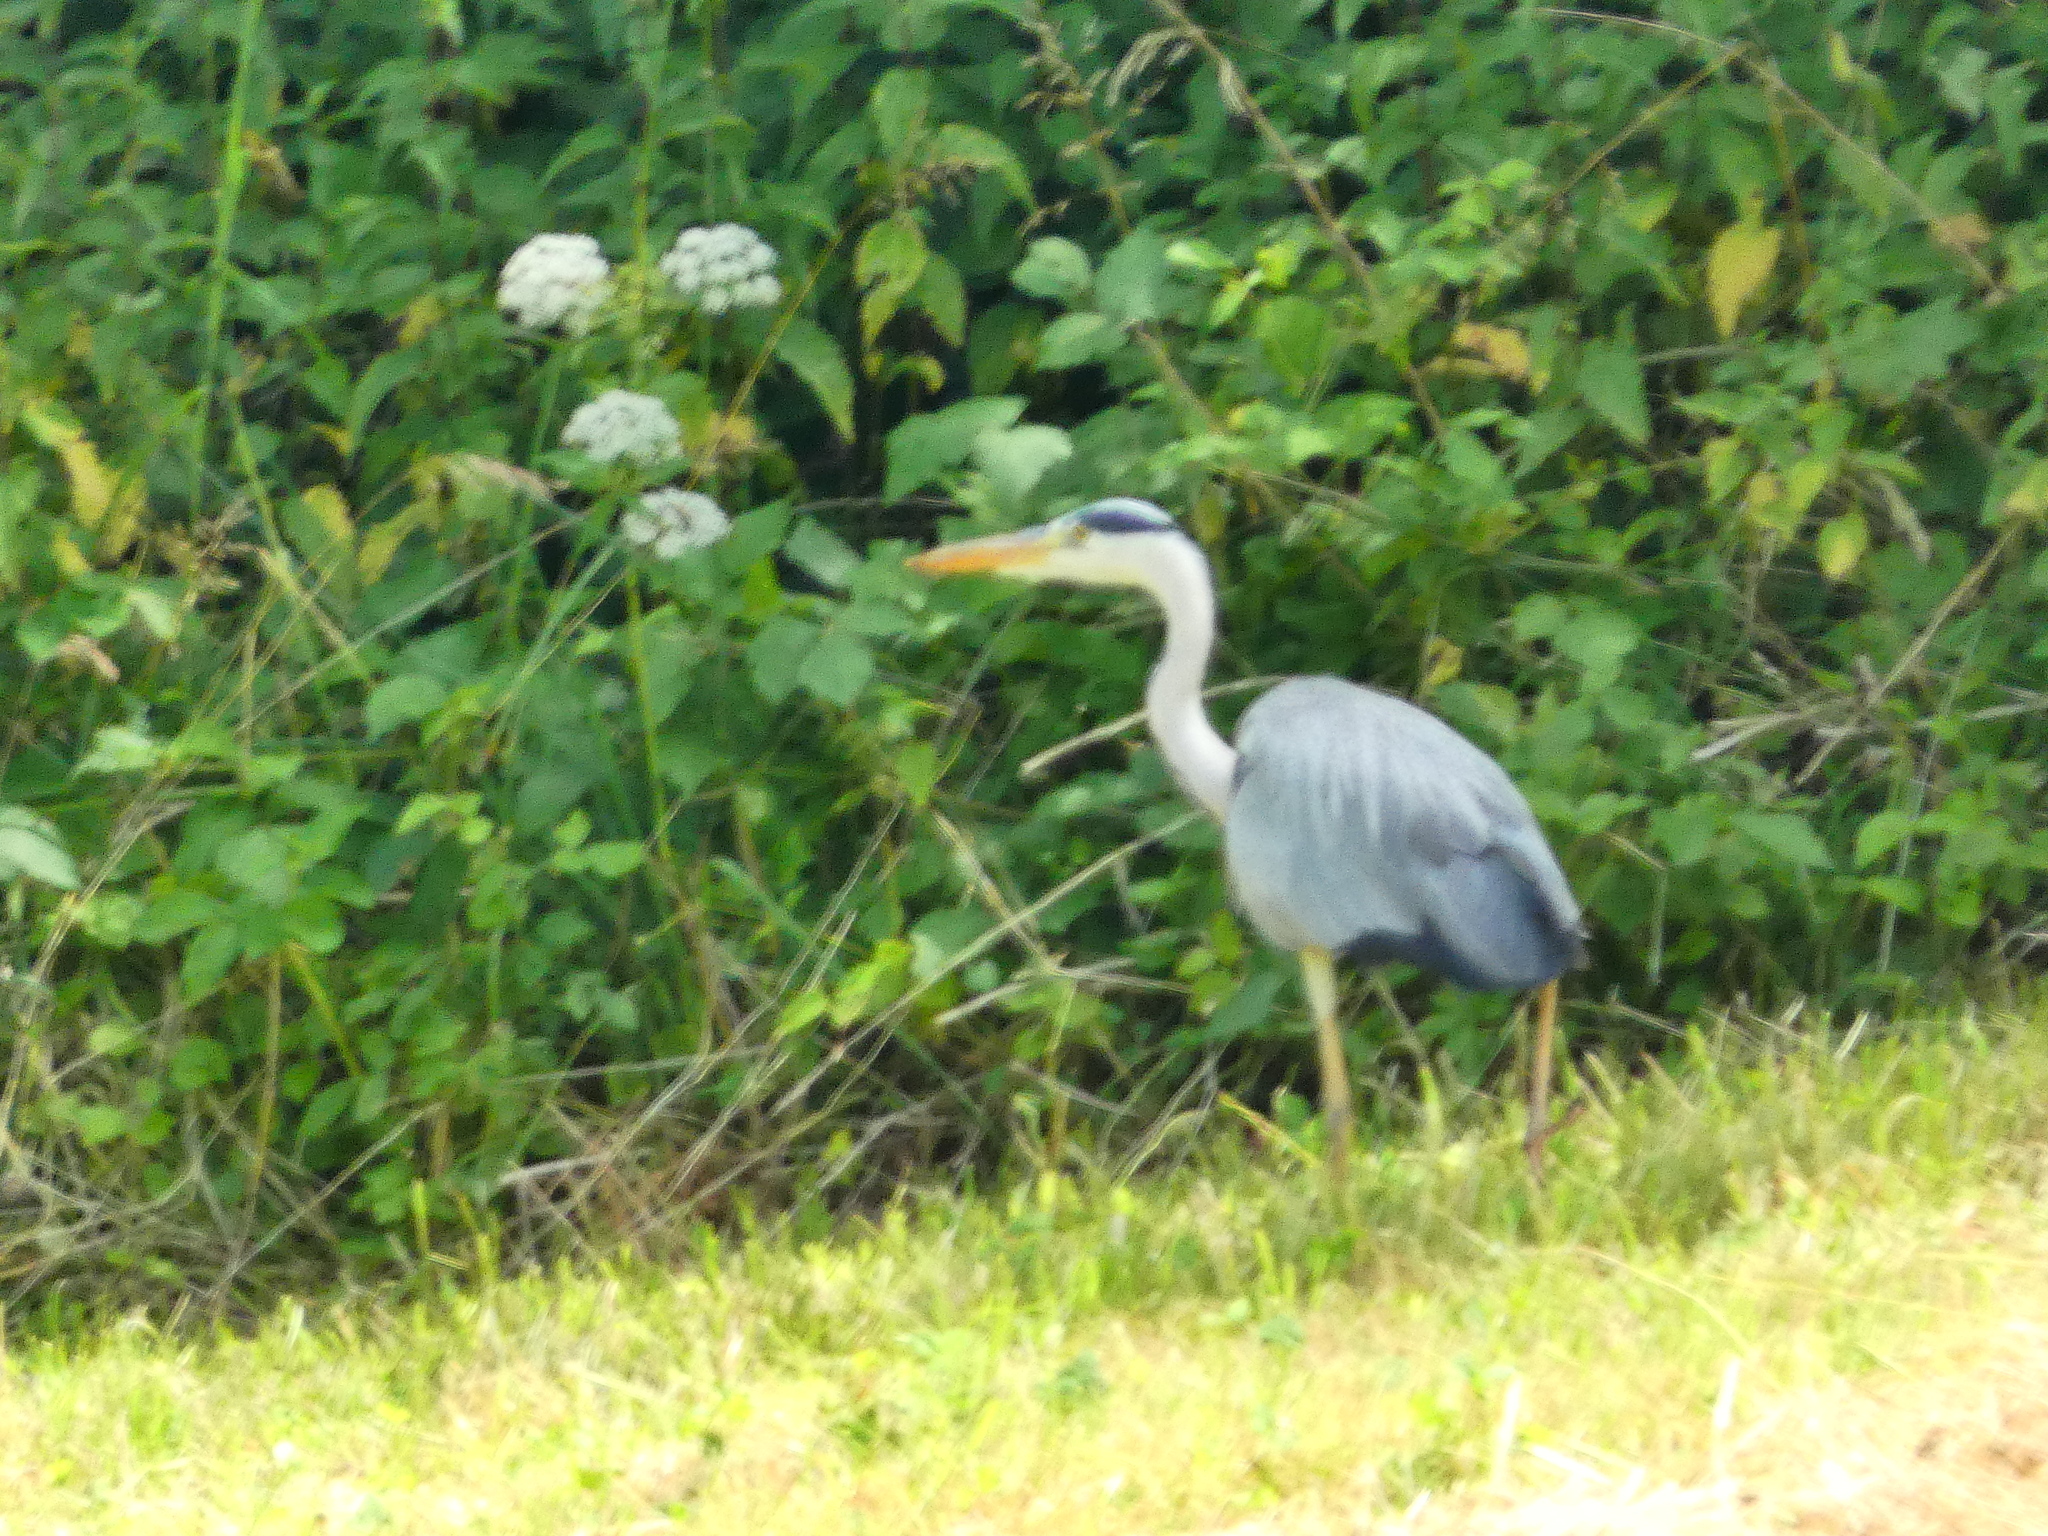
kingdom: Animalia
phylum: Chordata
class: Aves
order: Pelecaniformes
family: Ardeidae
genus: Ardea
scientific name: Ardea cinerea
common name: Grey heron
